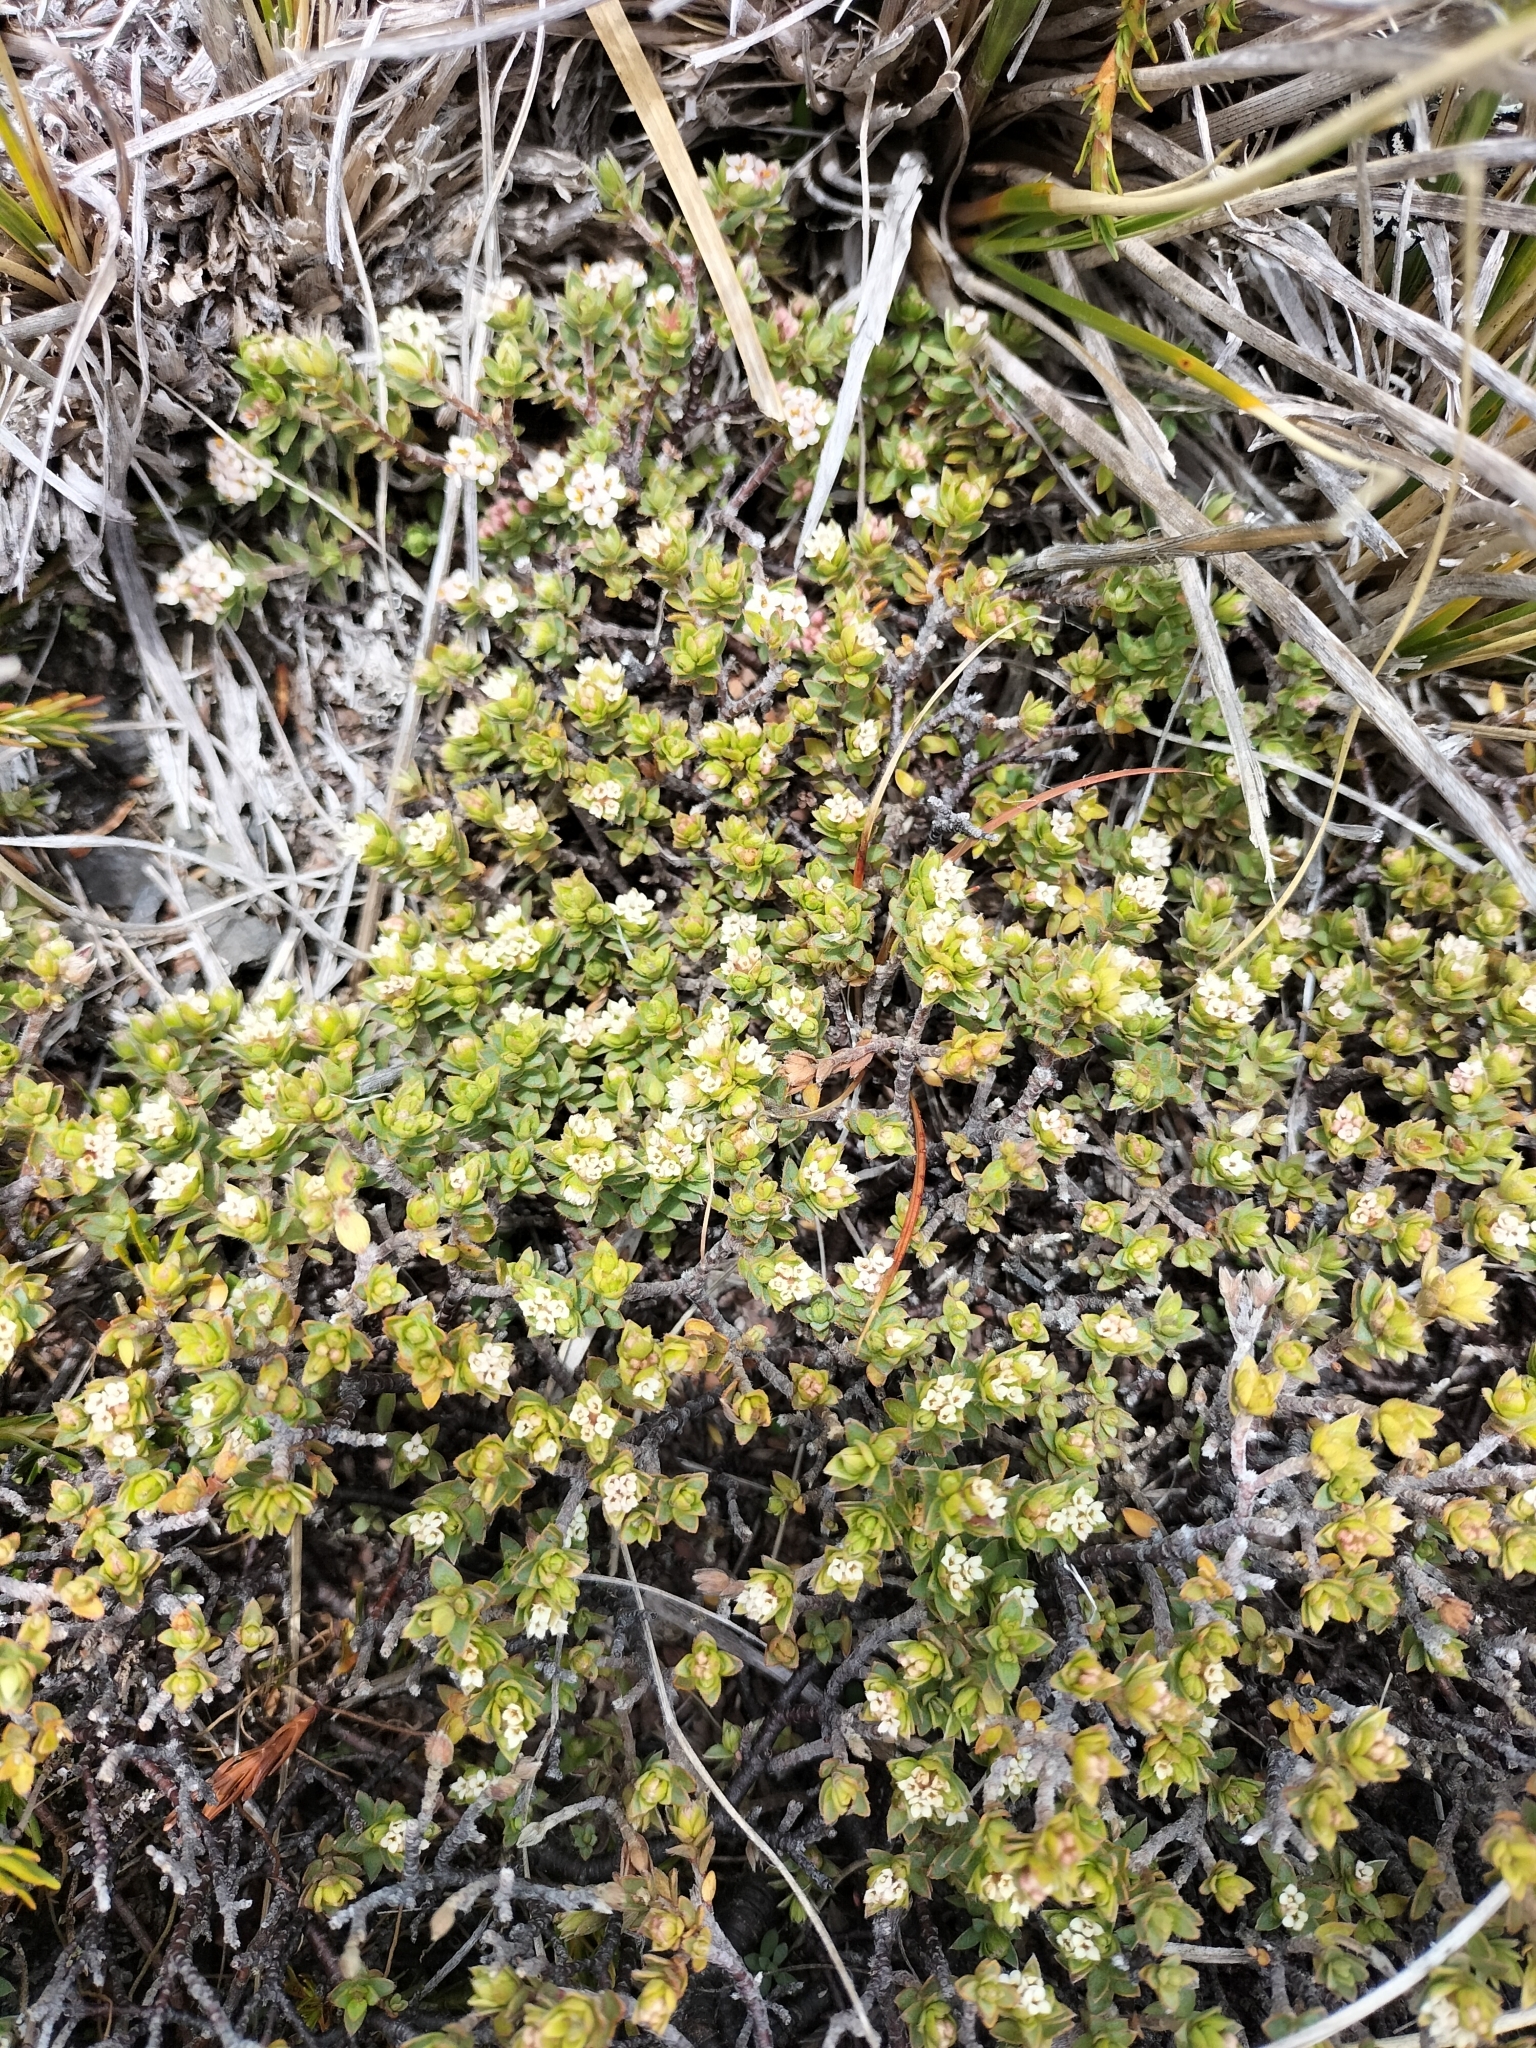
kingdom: Plantae
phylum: Tracheophyta
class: Magnoliopsida
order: Malvales
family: Thymelaeaceae
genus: Pimelea
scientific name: Pimelea oreophila
